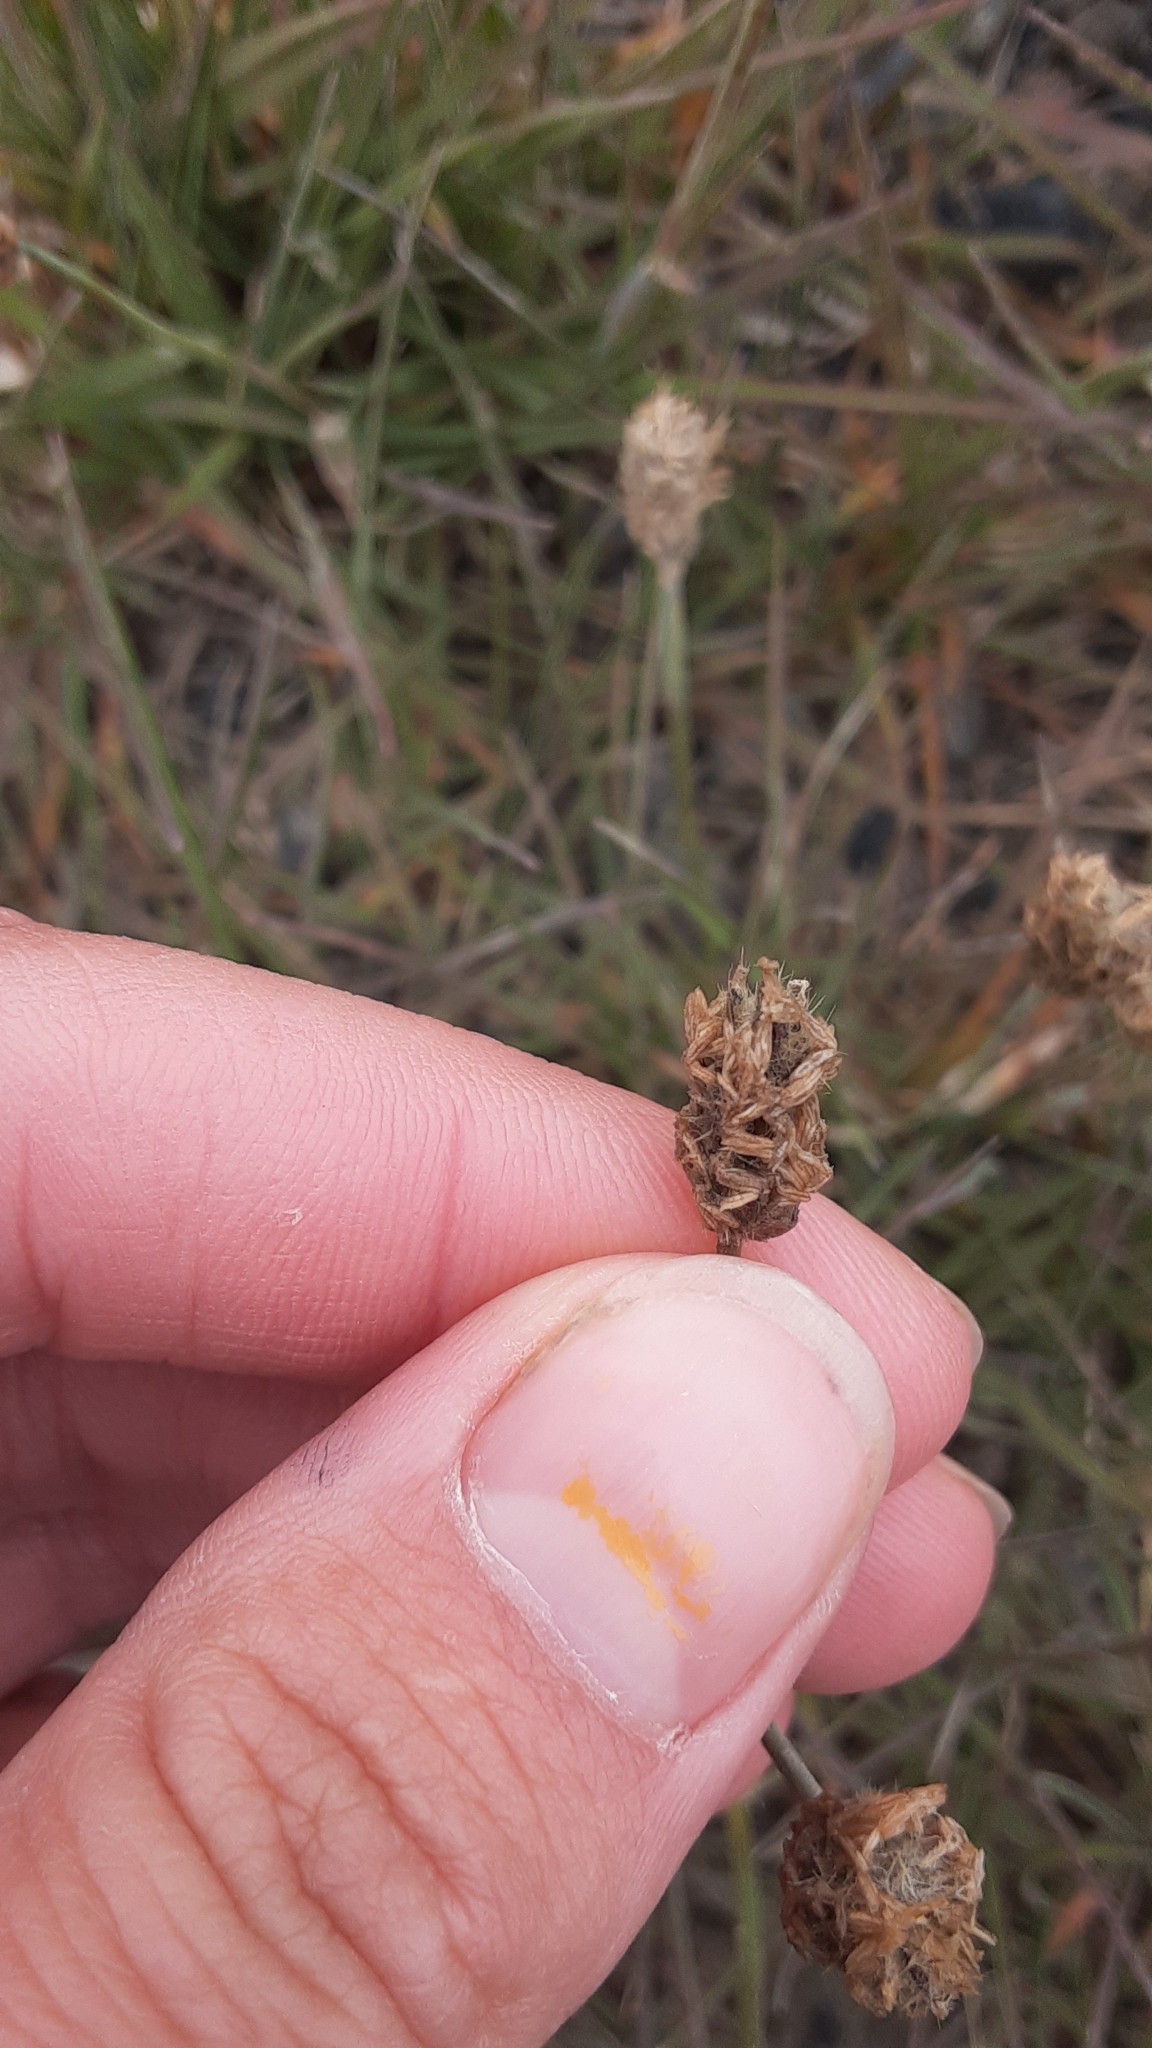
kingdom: Plantae
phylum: Tracheophyta
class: Liliopsida
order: Poales
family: Poaceae
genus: Alopecurus
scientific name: Alopecurus magellanicus
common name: Alpine foxtail
